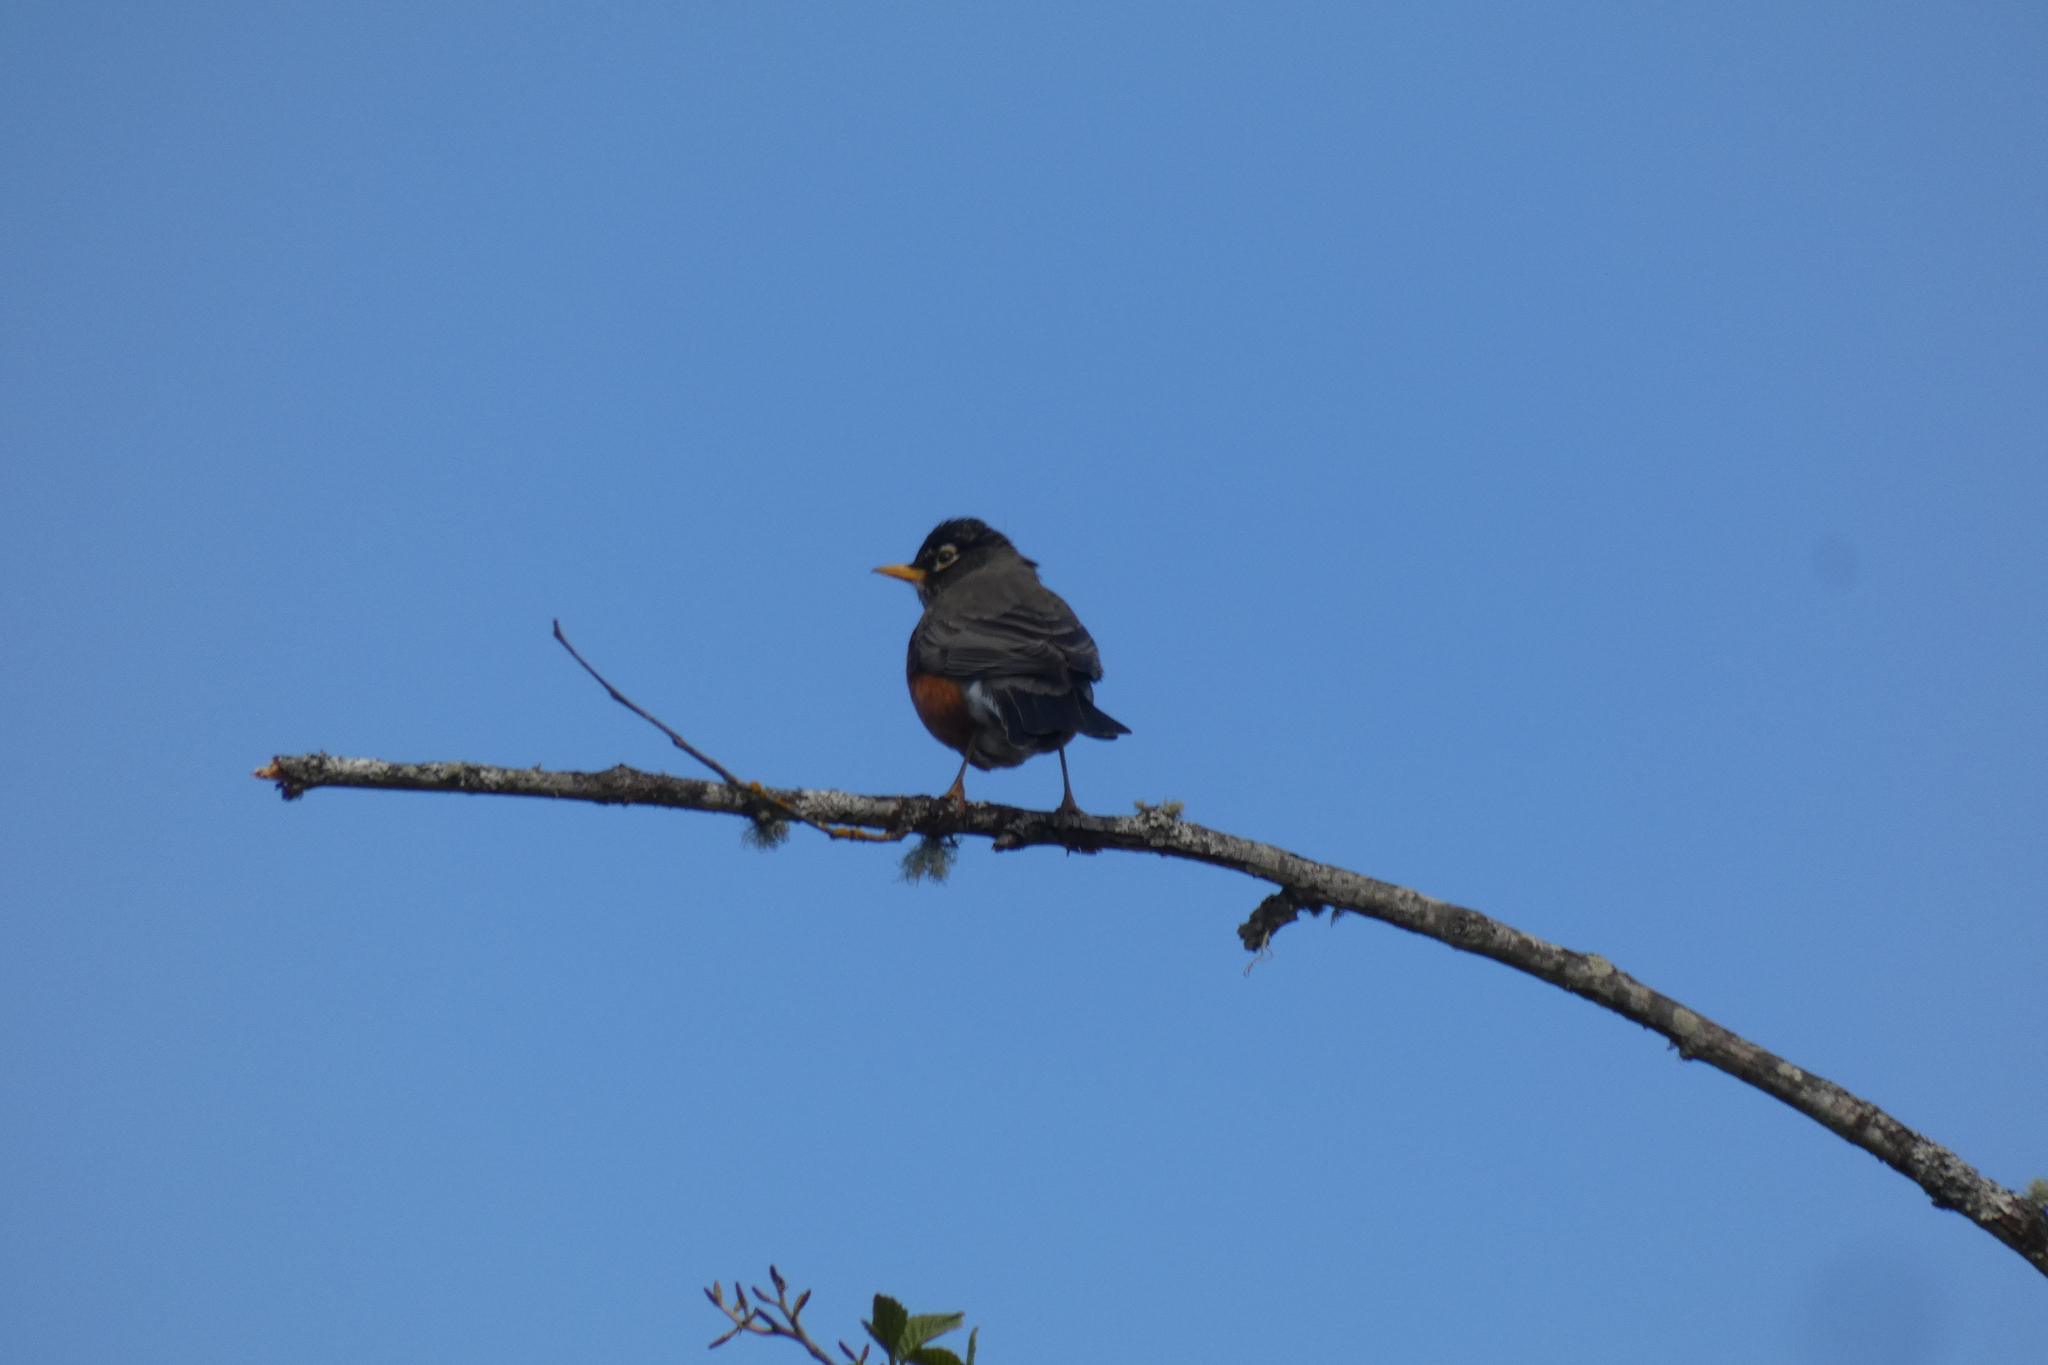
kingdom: Animalia
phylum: Chordata
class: Aves
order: Passeriformes
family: Turdidae
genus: Turdus
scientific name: Turdus migratorius
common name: American robin
